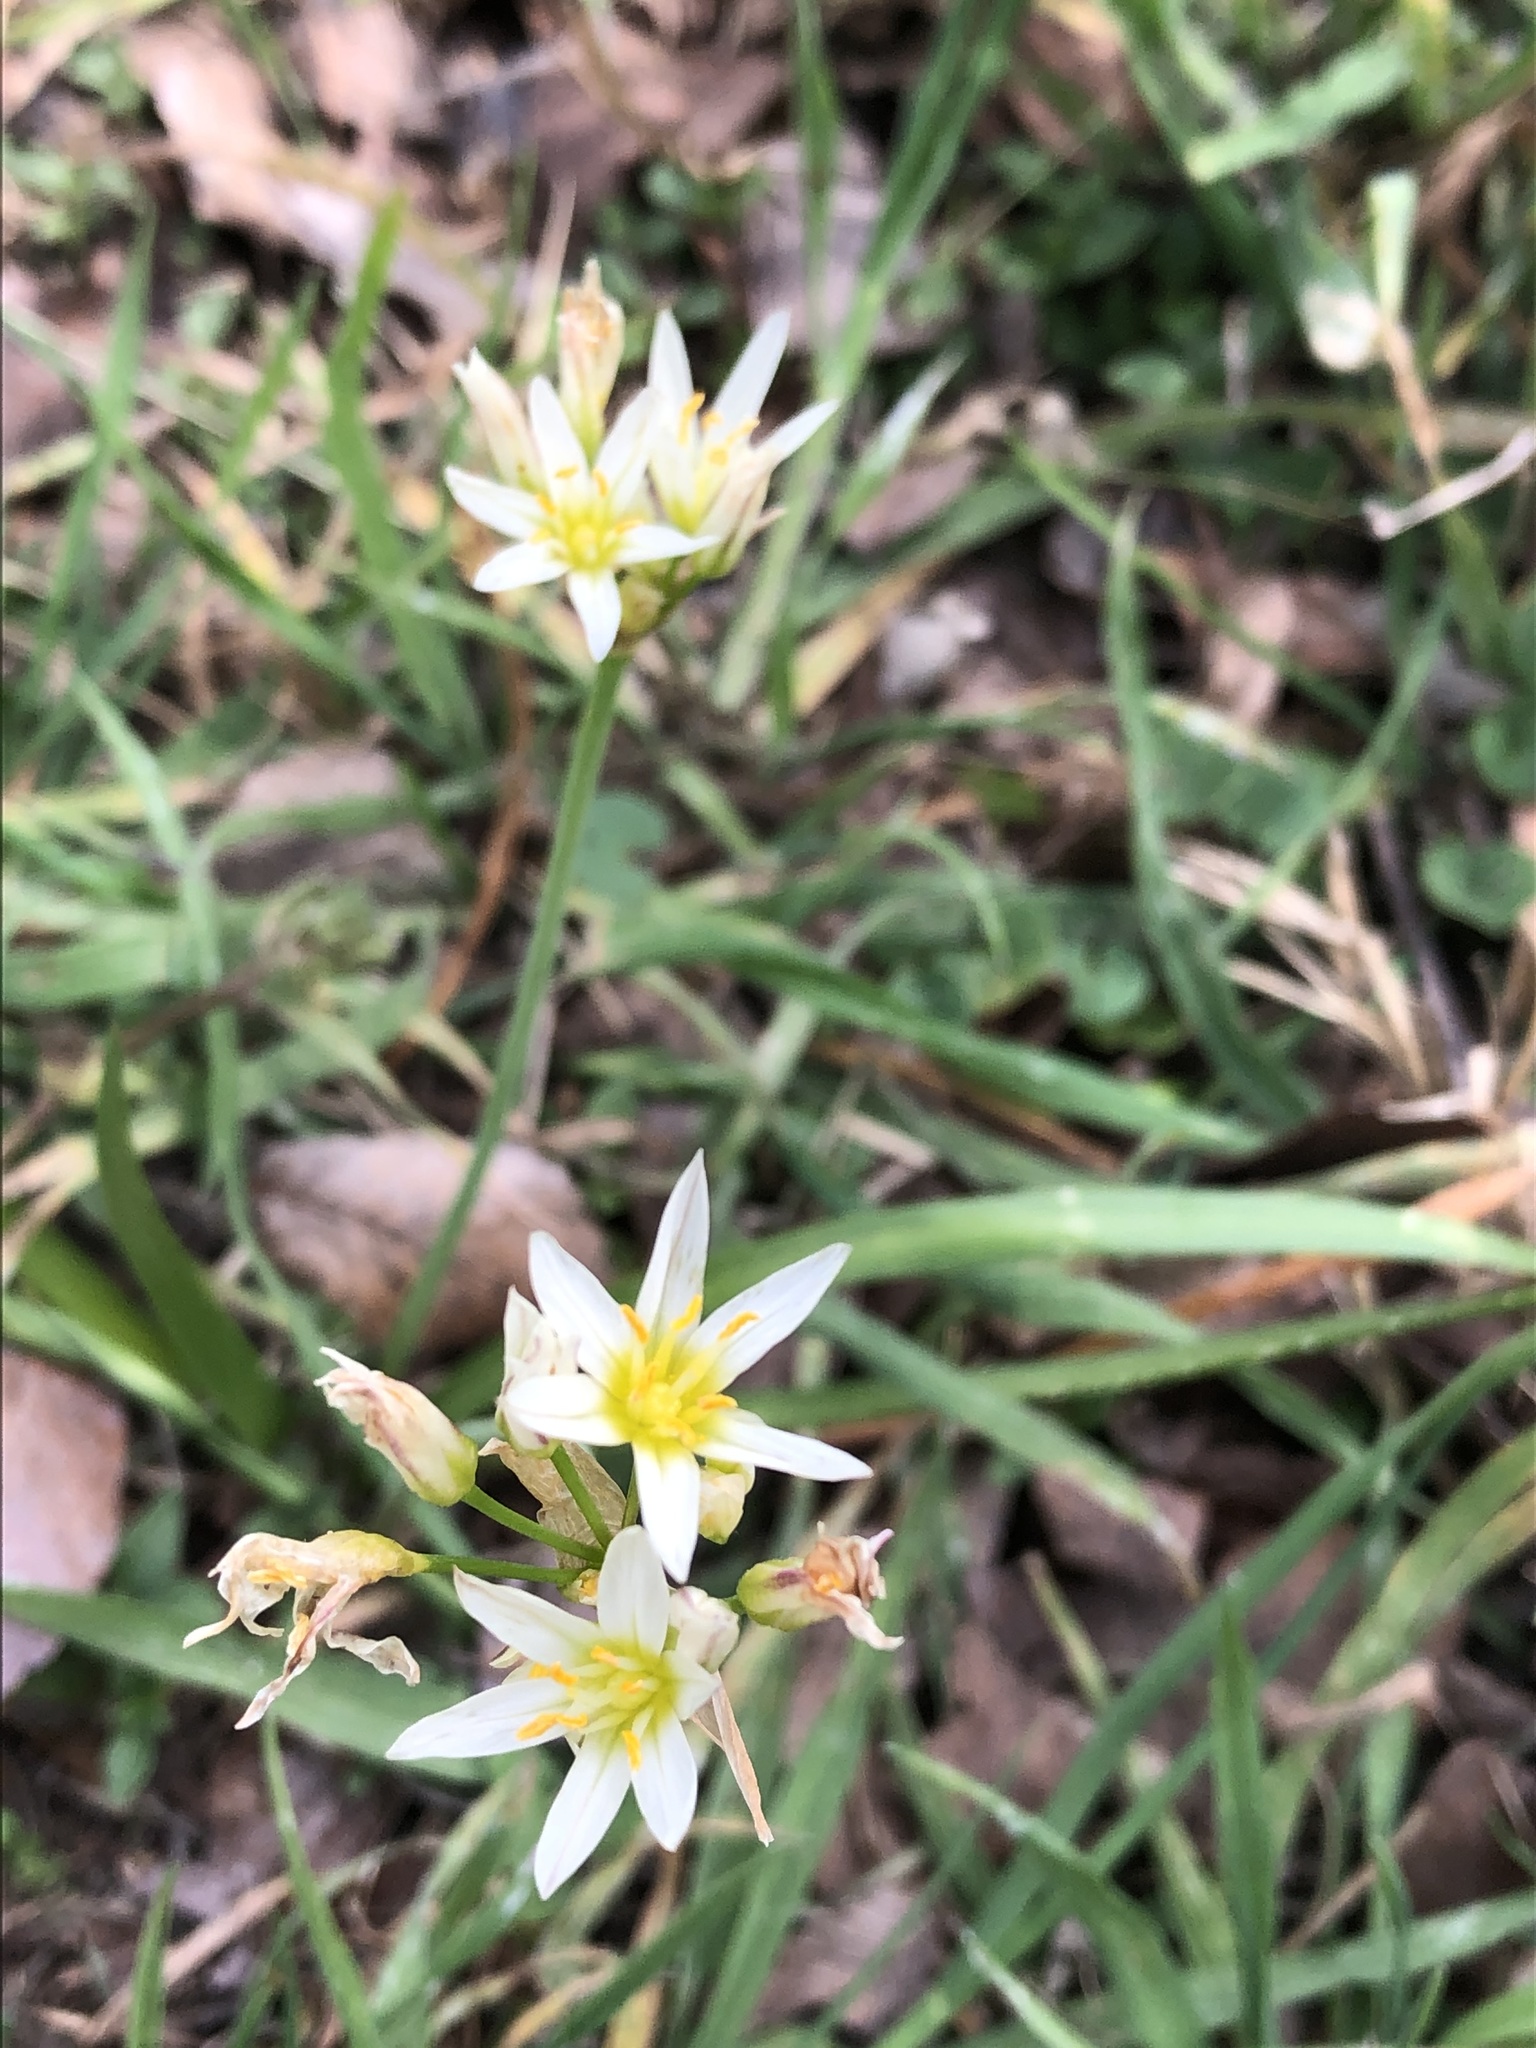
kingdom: Plantae
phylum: Tracheophyta
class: Liliopsida
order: Asparagales
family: Amaryllidaceae
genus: Nothoscordum
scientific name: Nothoscordum bivalve
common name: Crow-poison
